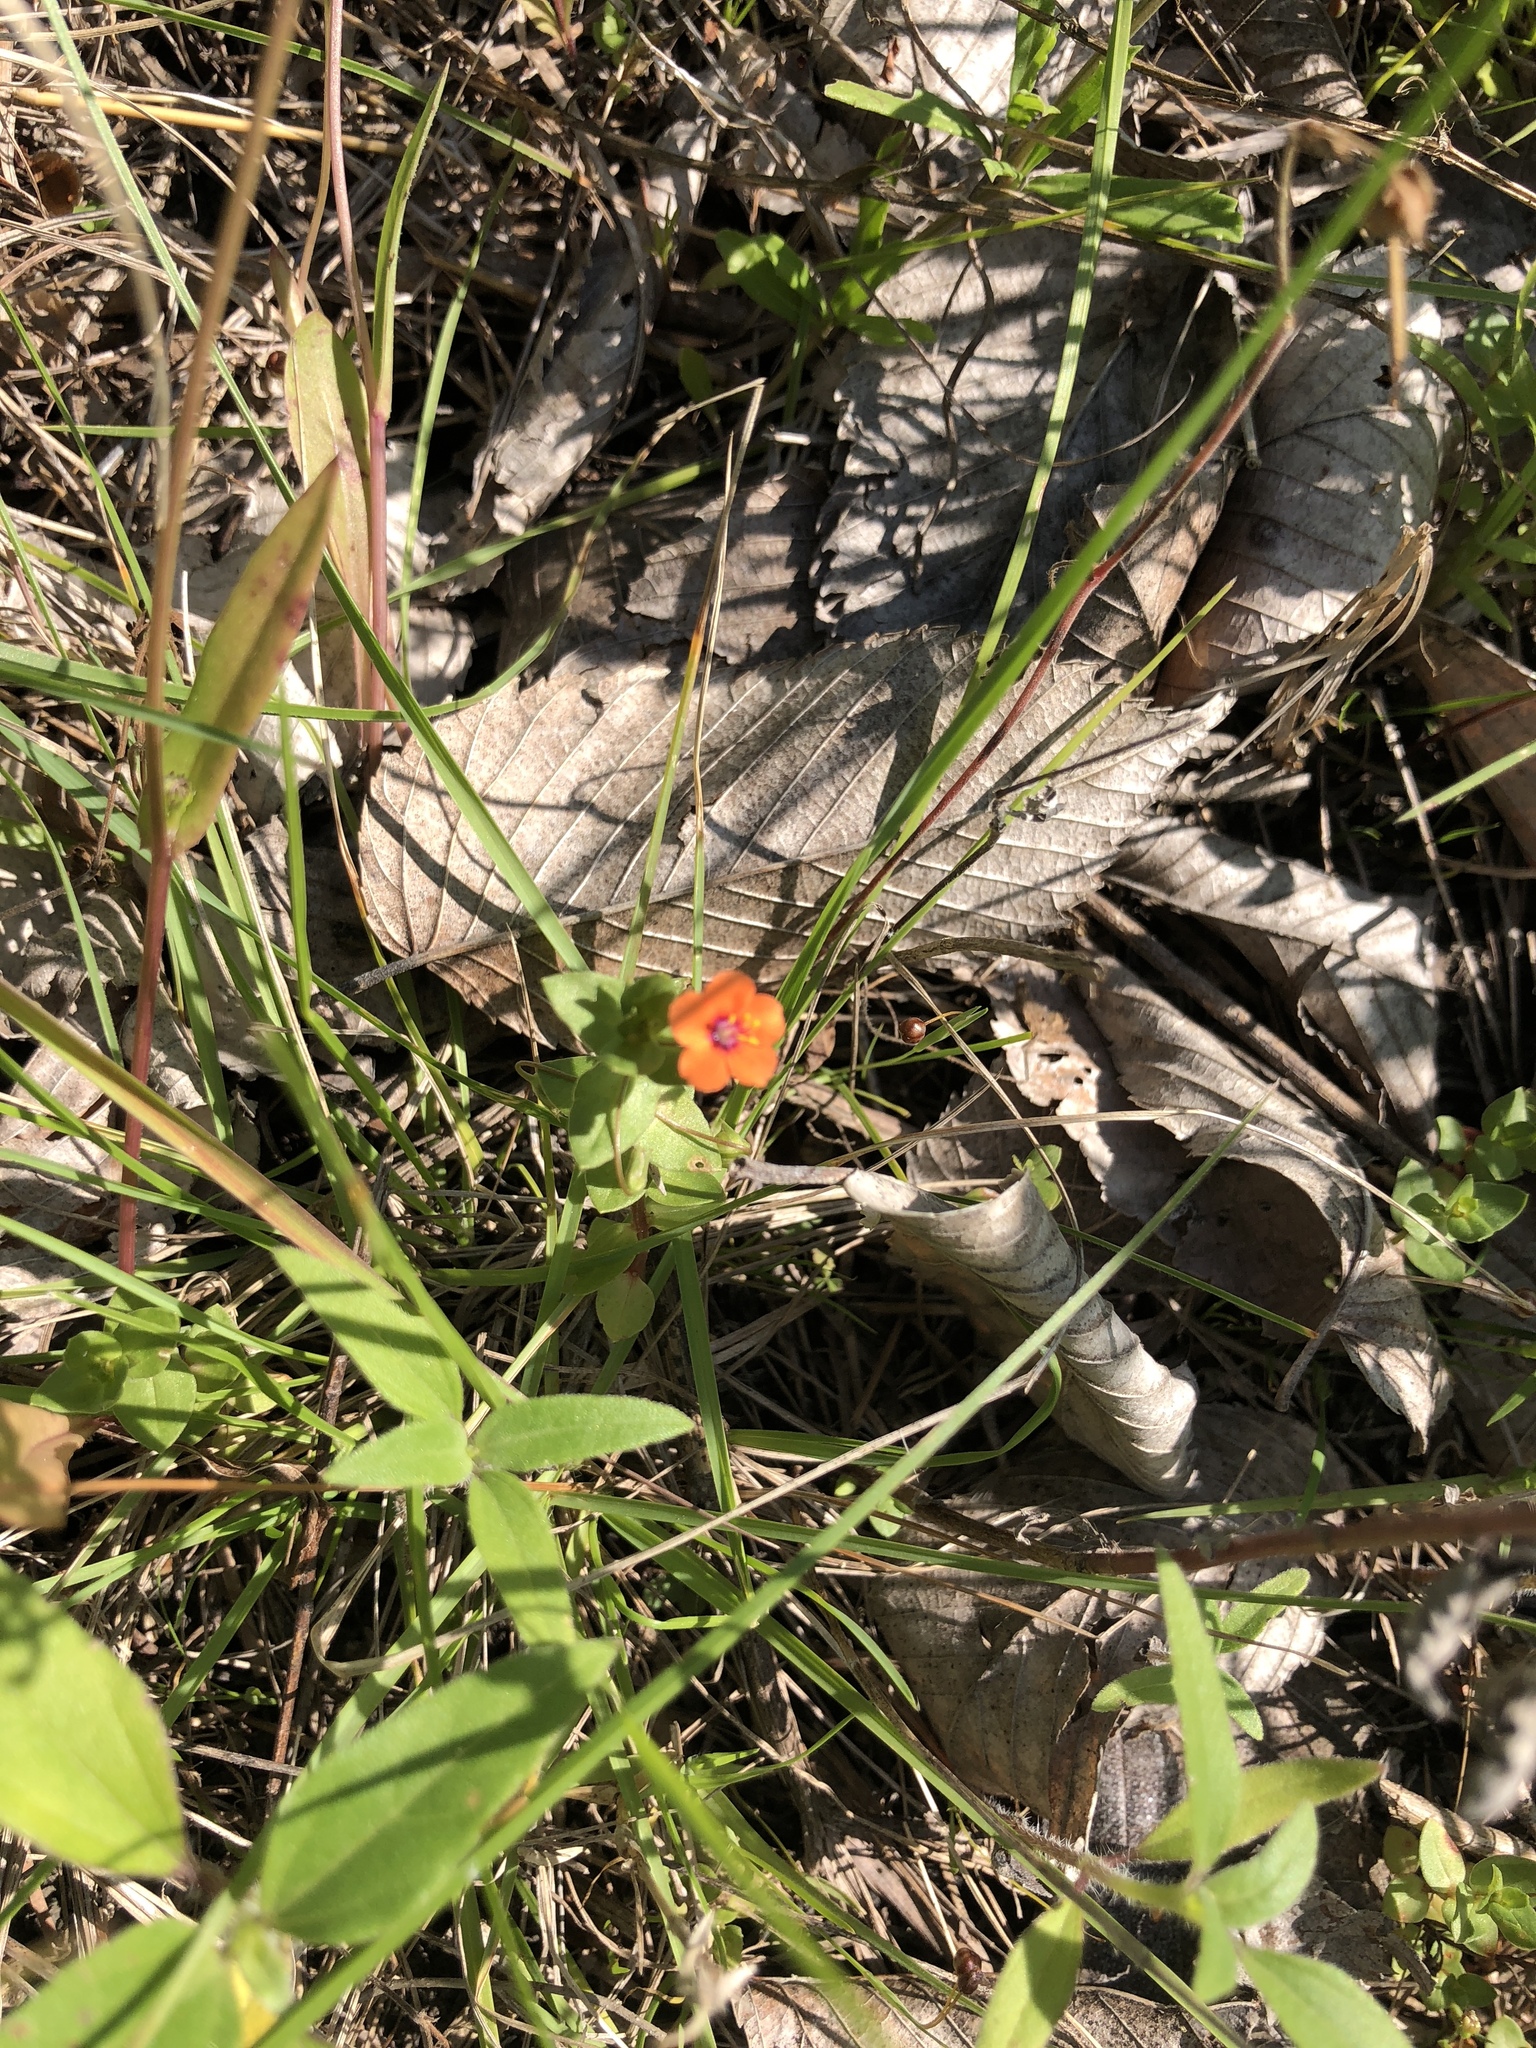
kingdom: Plantae
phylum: Tracheophyta
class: Magnoliopsida
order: Ericales
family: Primulaceae
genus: Lysimachia
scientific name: Lysimachia arvensis
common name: Scarlet pimpernel
